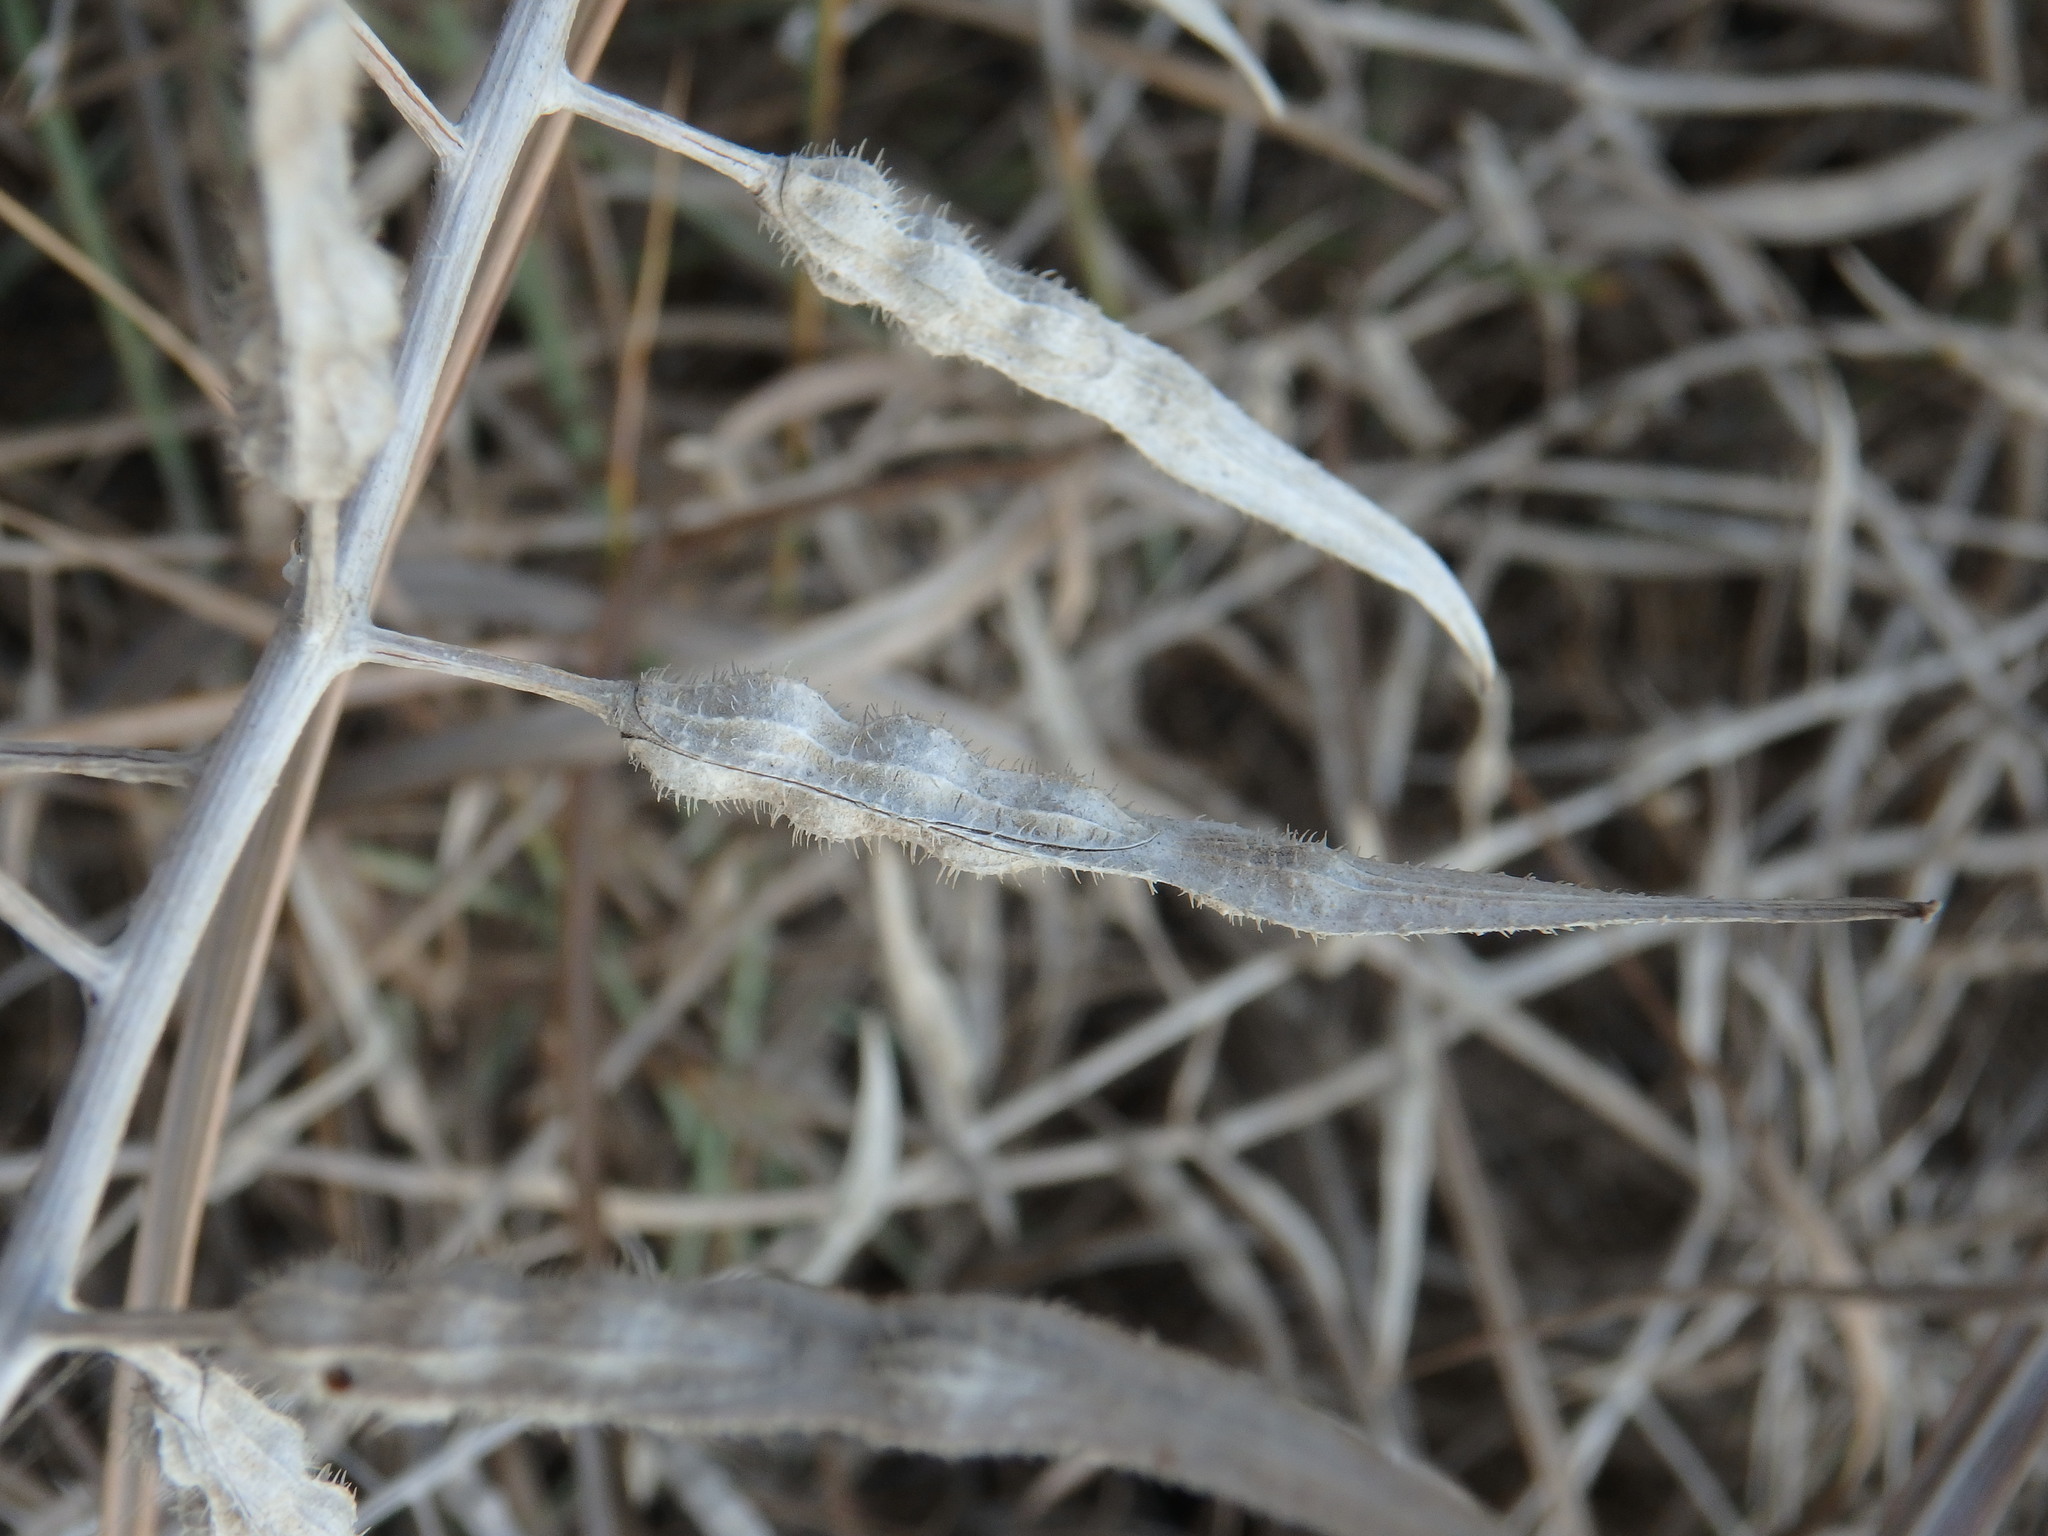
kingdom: Plantae
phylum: Tracheophyta
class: Magnoliopsida
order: Brassicales
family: Brassicaceae
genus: Sinapis
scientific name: Sinapis alba
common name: White mustard
